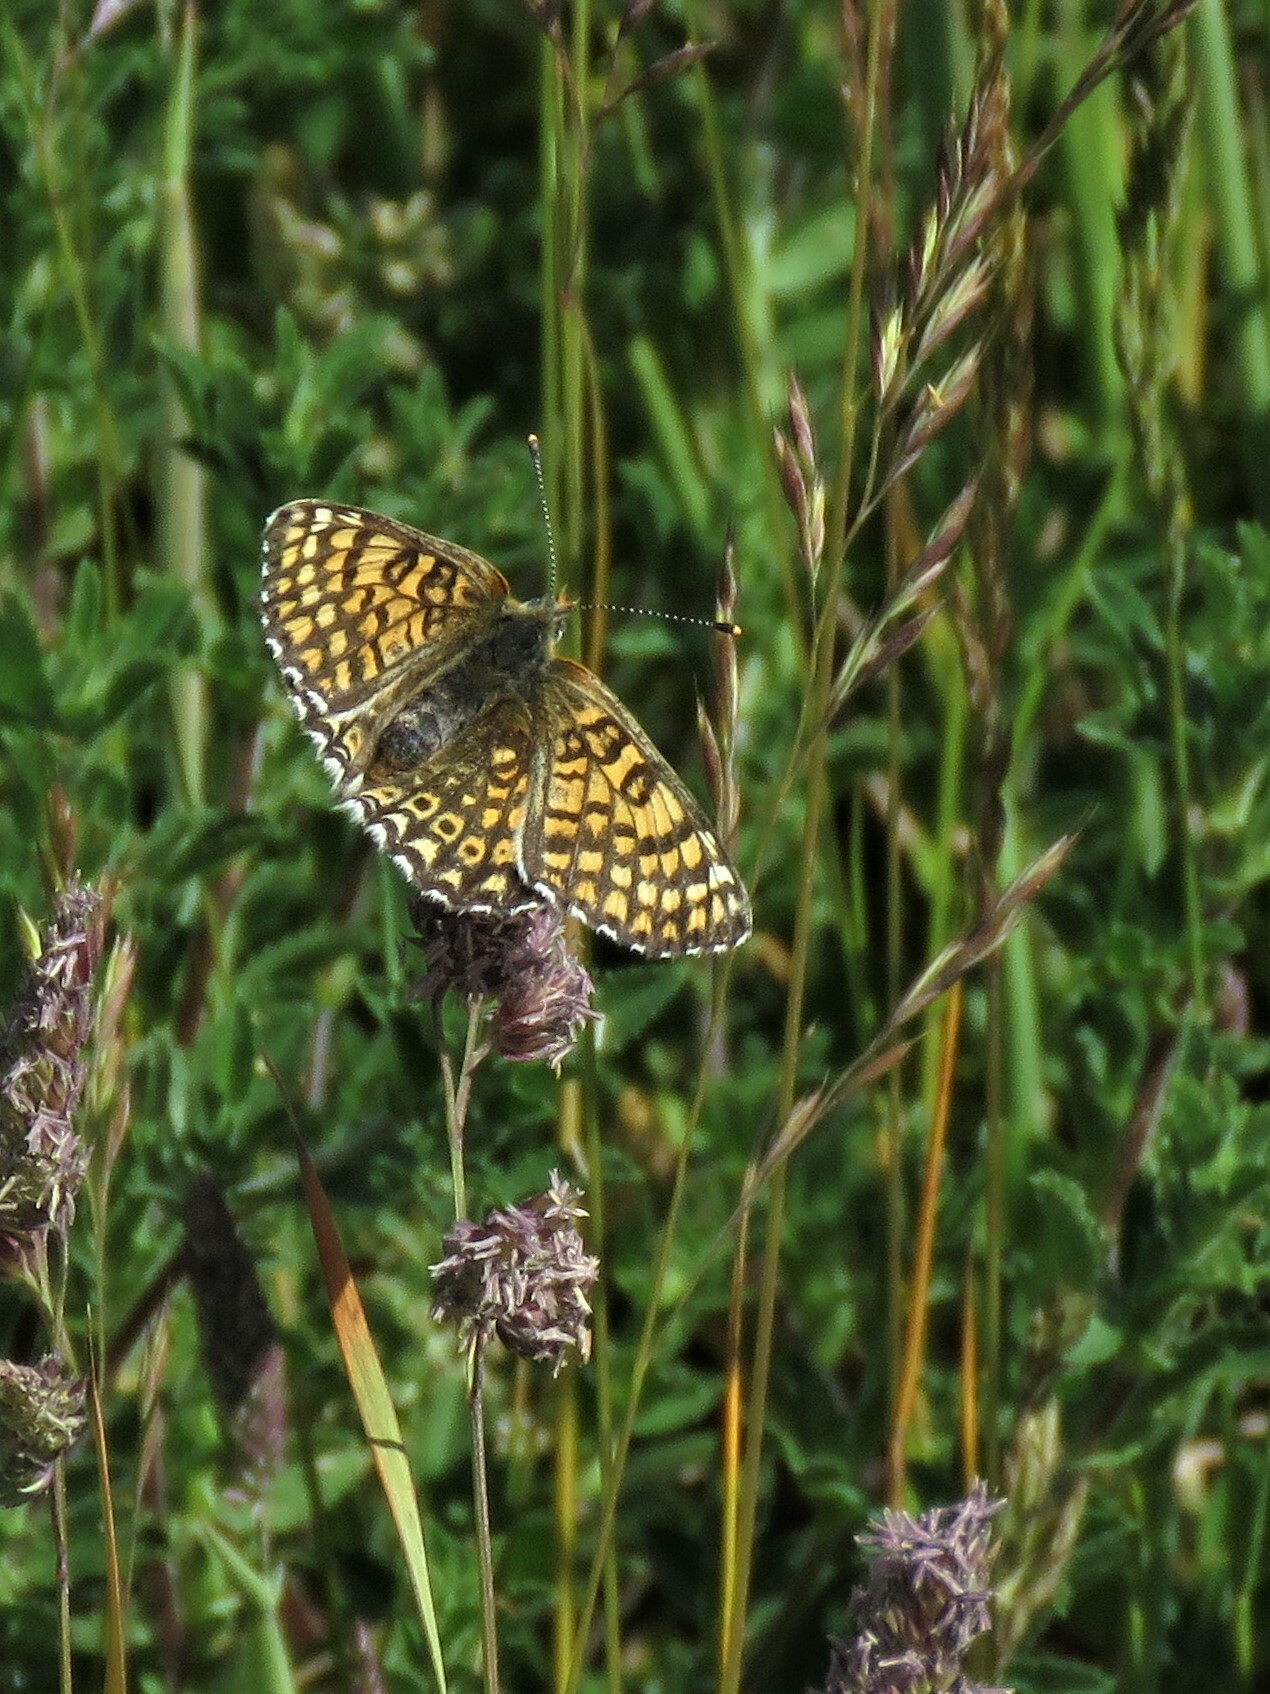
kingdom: Animalia
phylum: Arthropoda
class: Insecta
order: Lepidoptera
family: Nymphalidae
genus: Melitaea
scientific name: Melitaea cinxia
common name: Glanville fritillary
